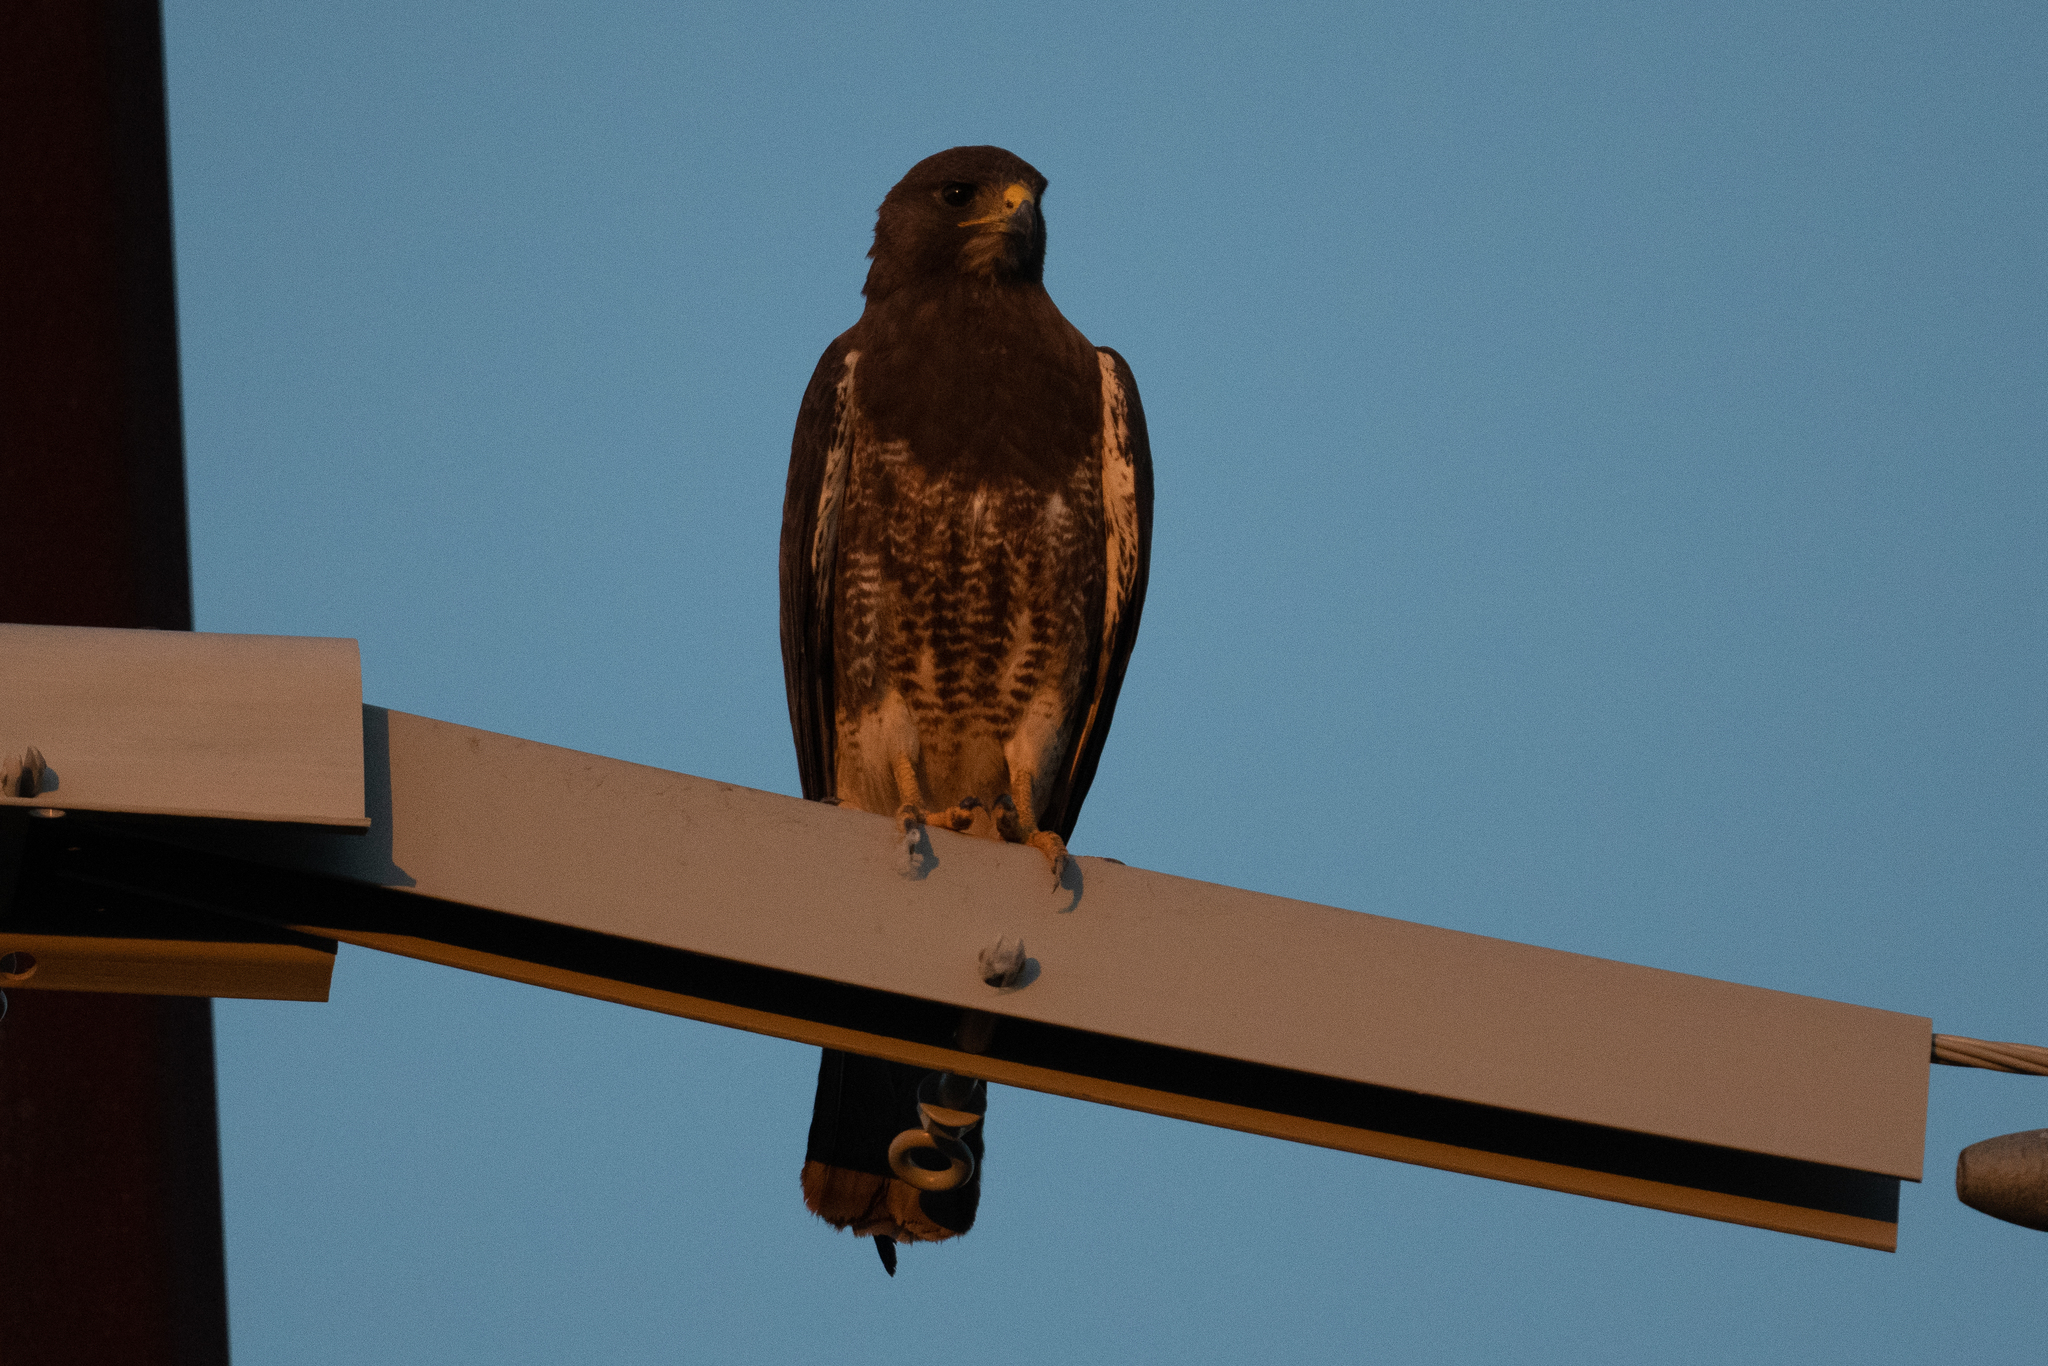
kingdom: Animalia
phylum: Chordata
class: Aves
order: Accipitriformes
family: Accipitridae
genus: Buteo
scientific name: Buteo swainsoni
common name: Swainson's hawk
